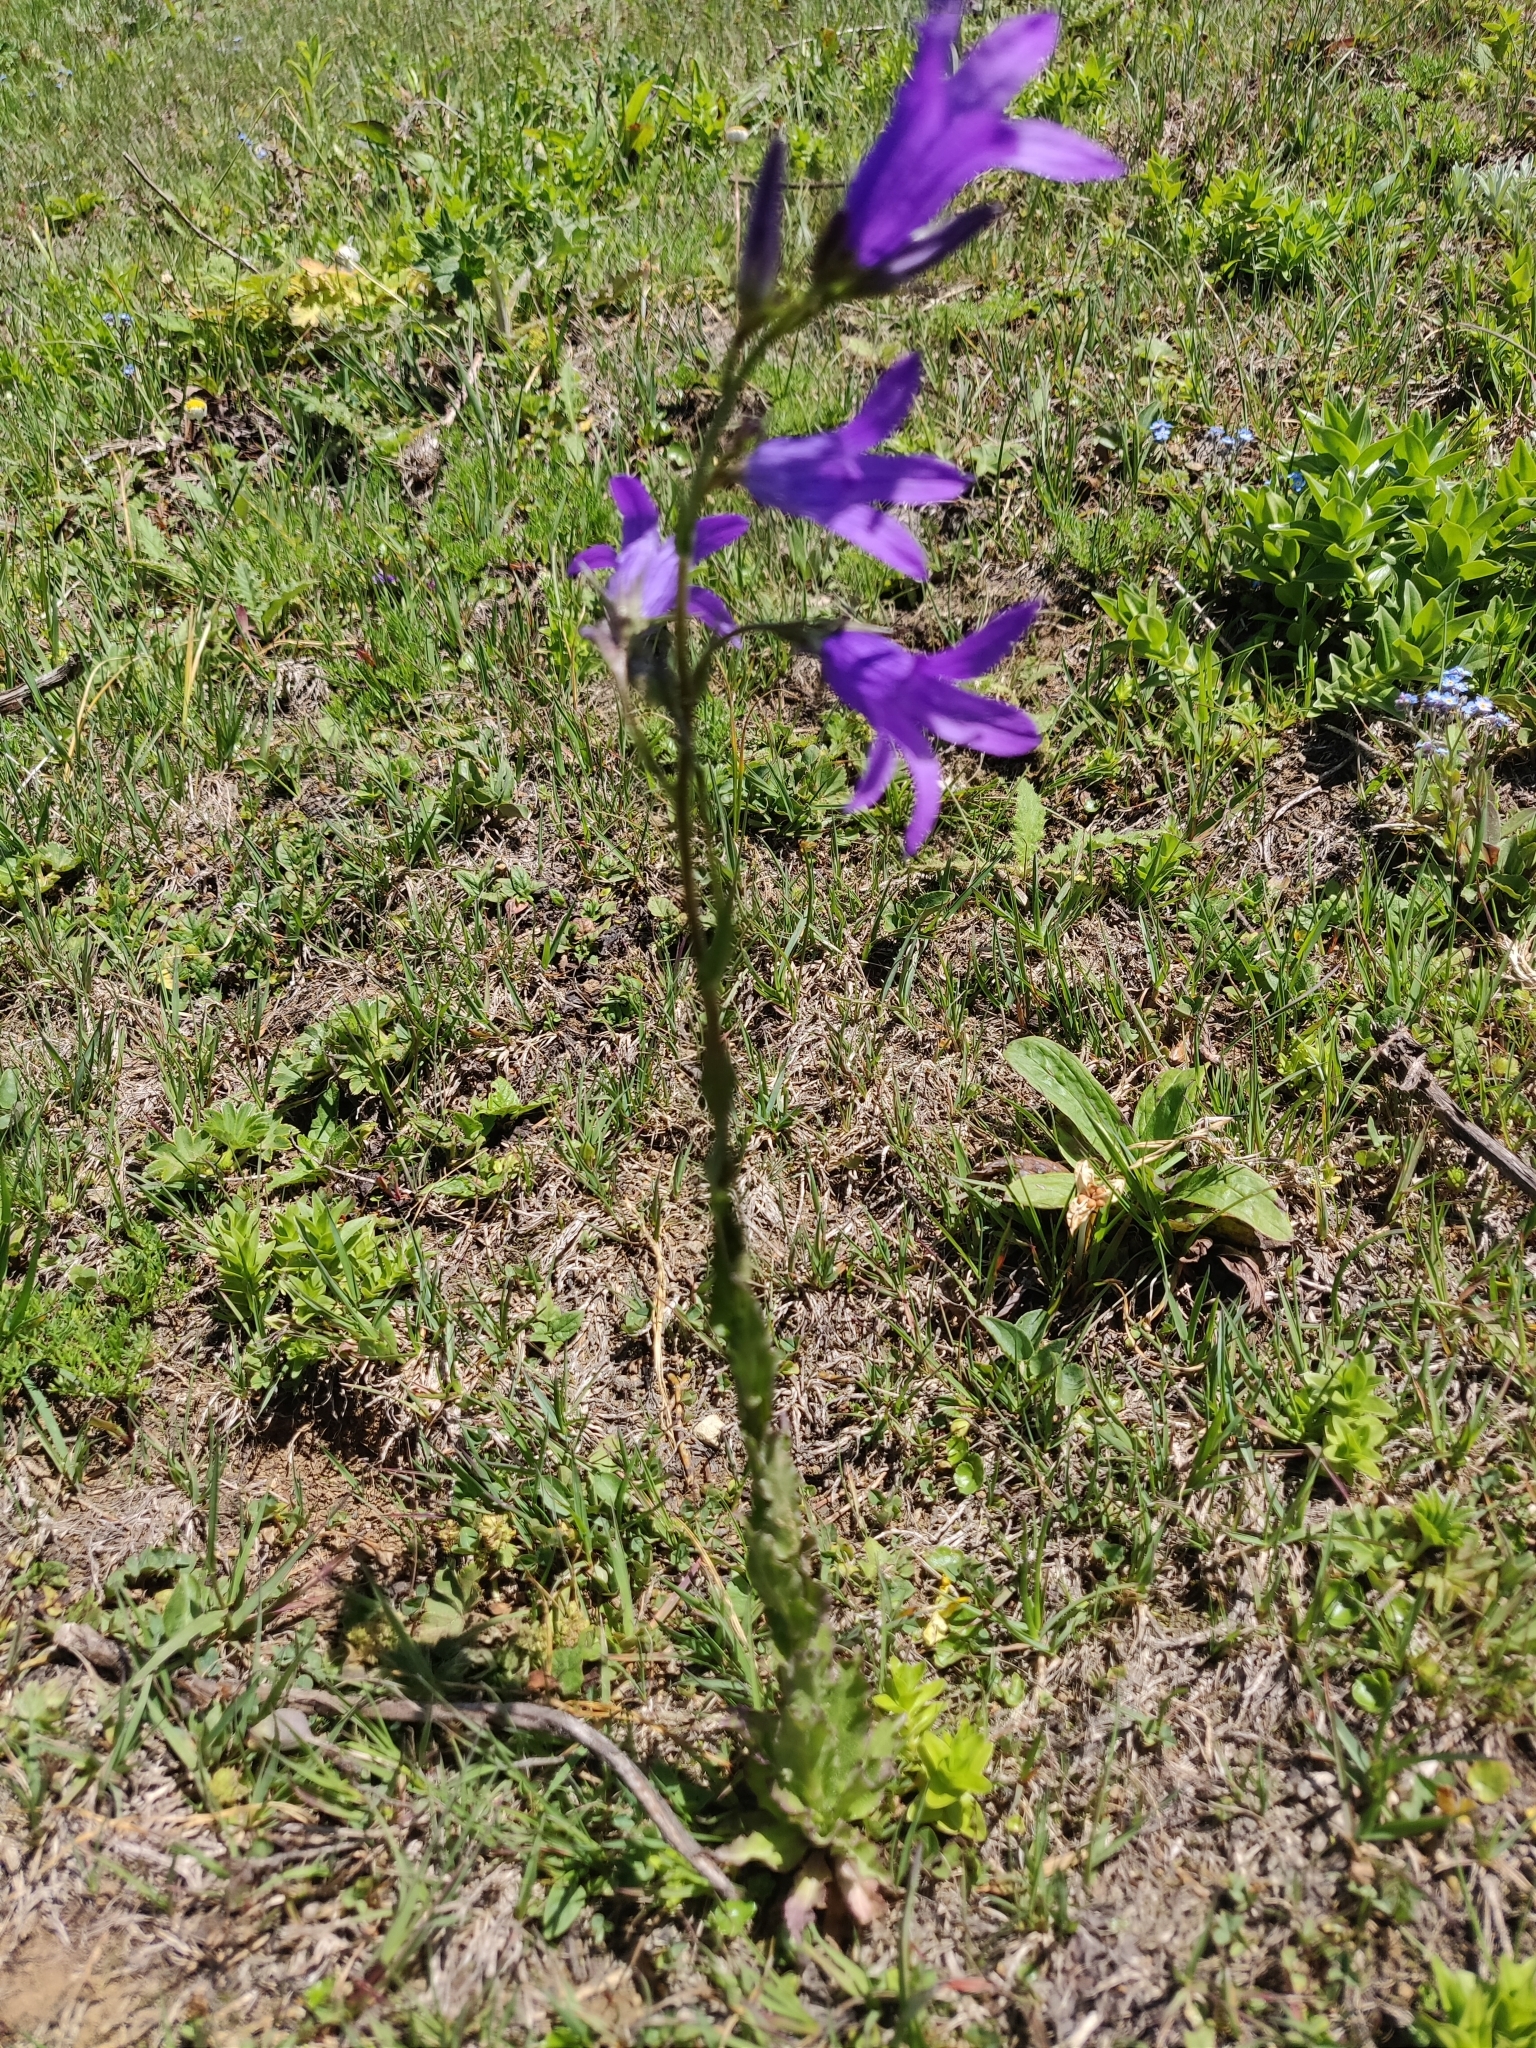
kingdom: Plantae
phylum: Tracheophyta
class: Magnoliopsida
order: Asterales
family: Campanulaceae
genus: Campanula
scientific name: Campanula sibirica
